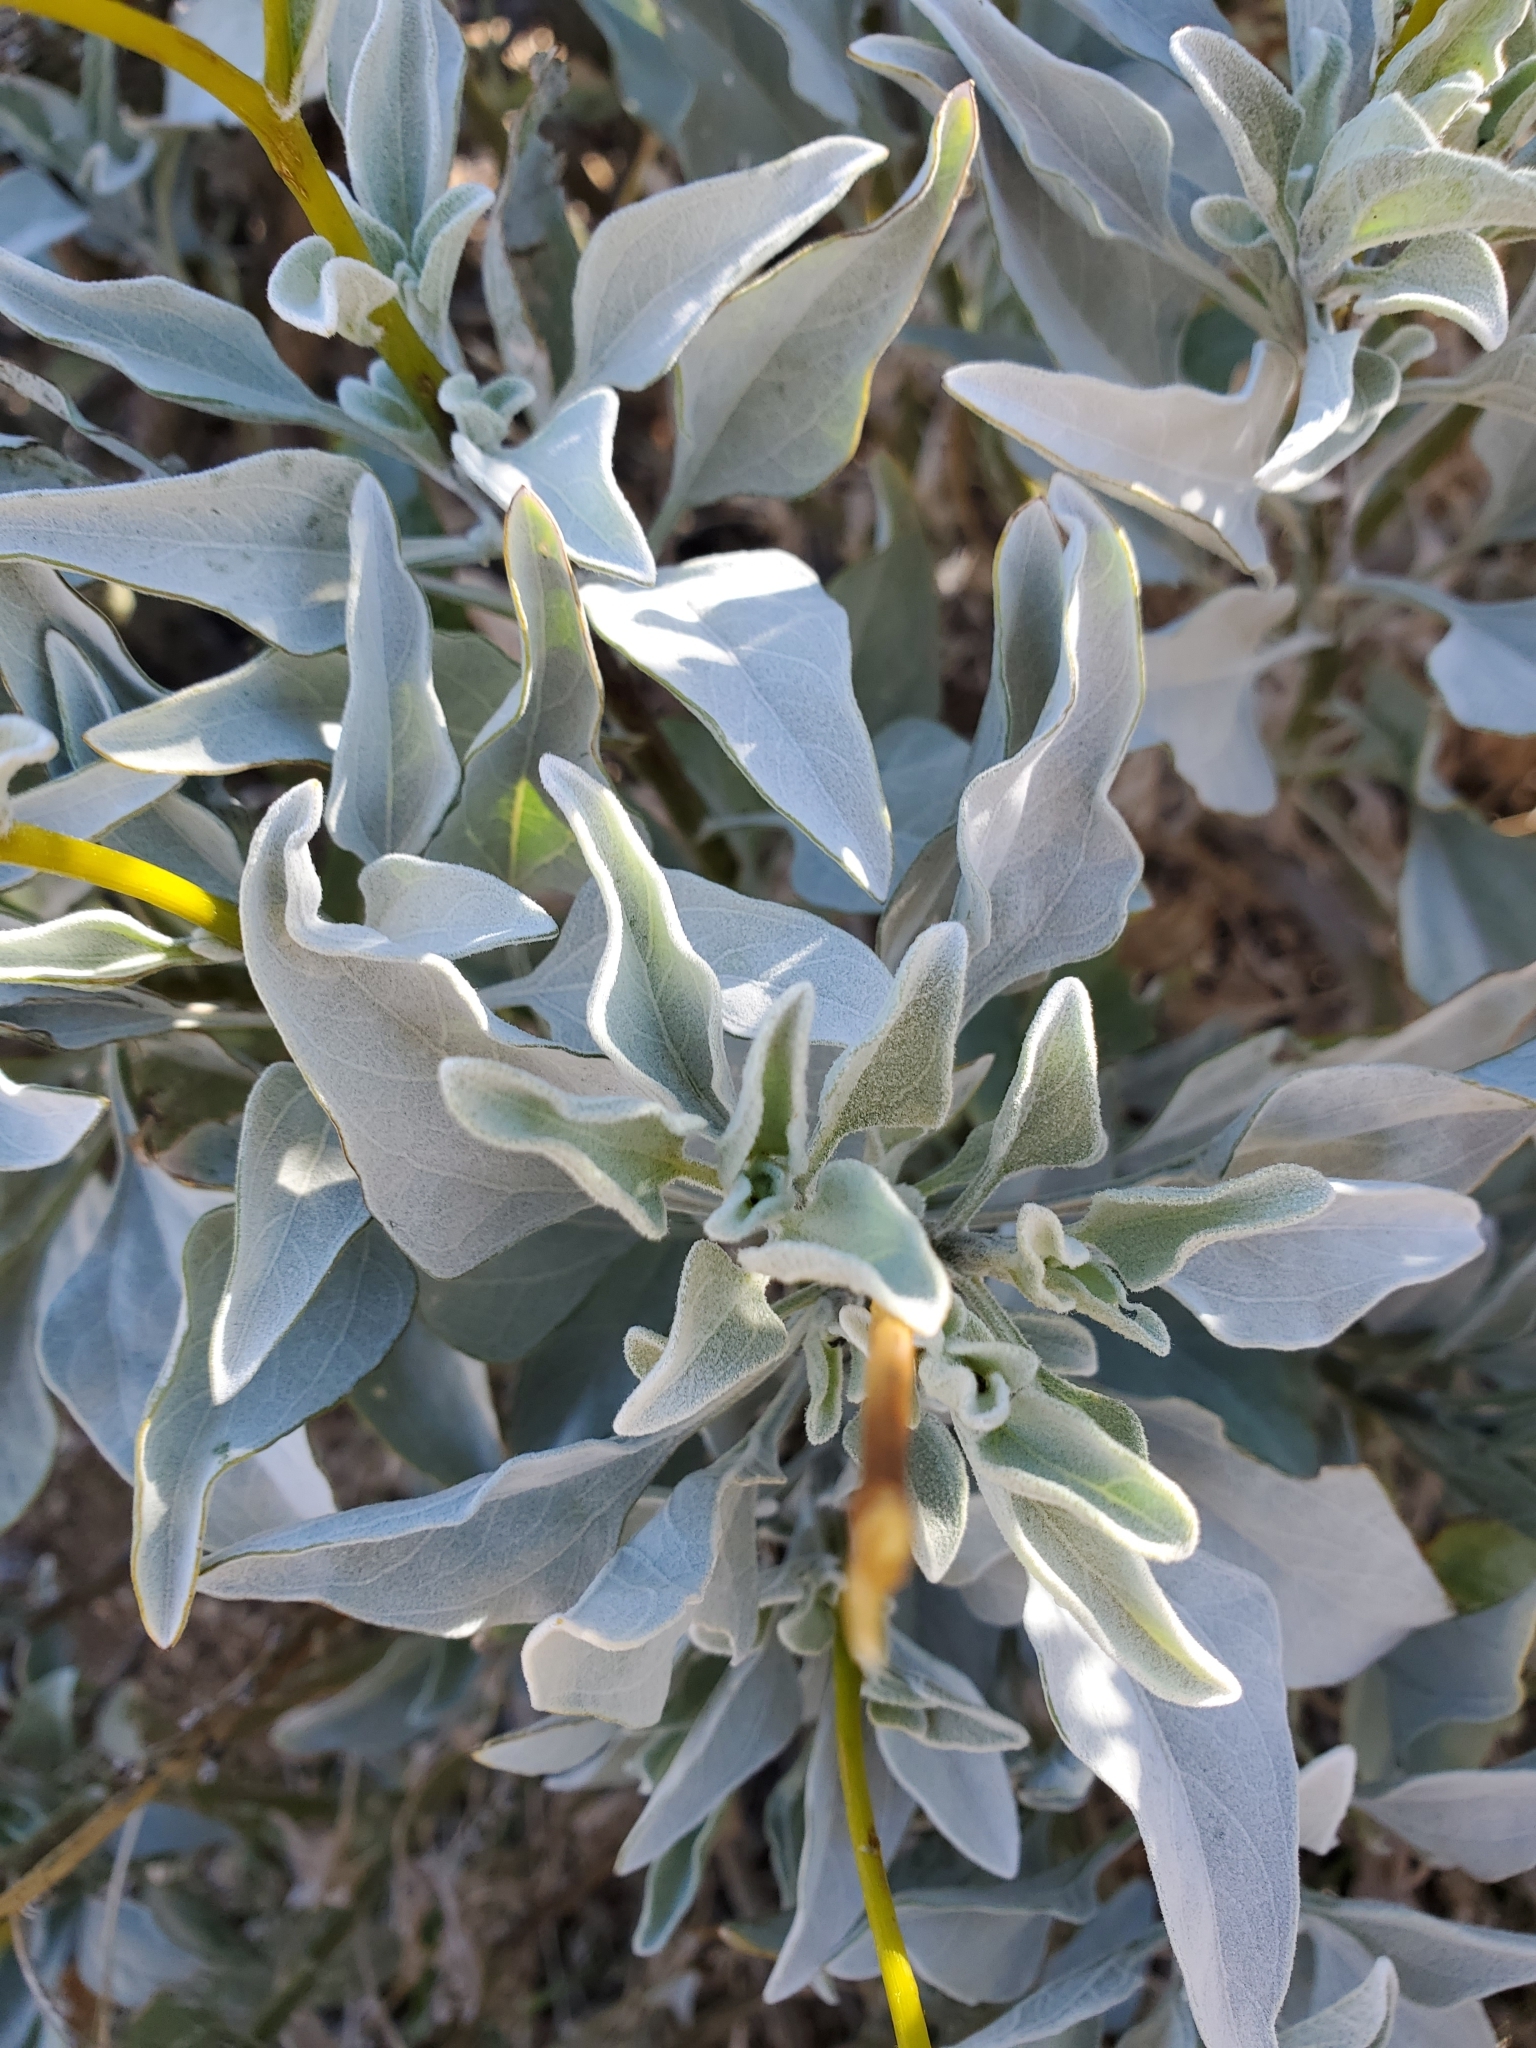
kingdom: Plantae
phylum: Tracheophyta
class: Magnoliopsida
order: Asterales
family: Asteraceae
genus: Encelia
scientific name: Encelia farinosa
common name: Brittlebush
